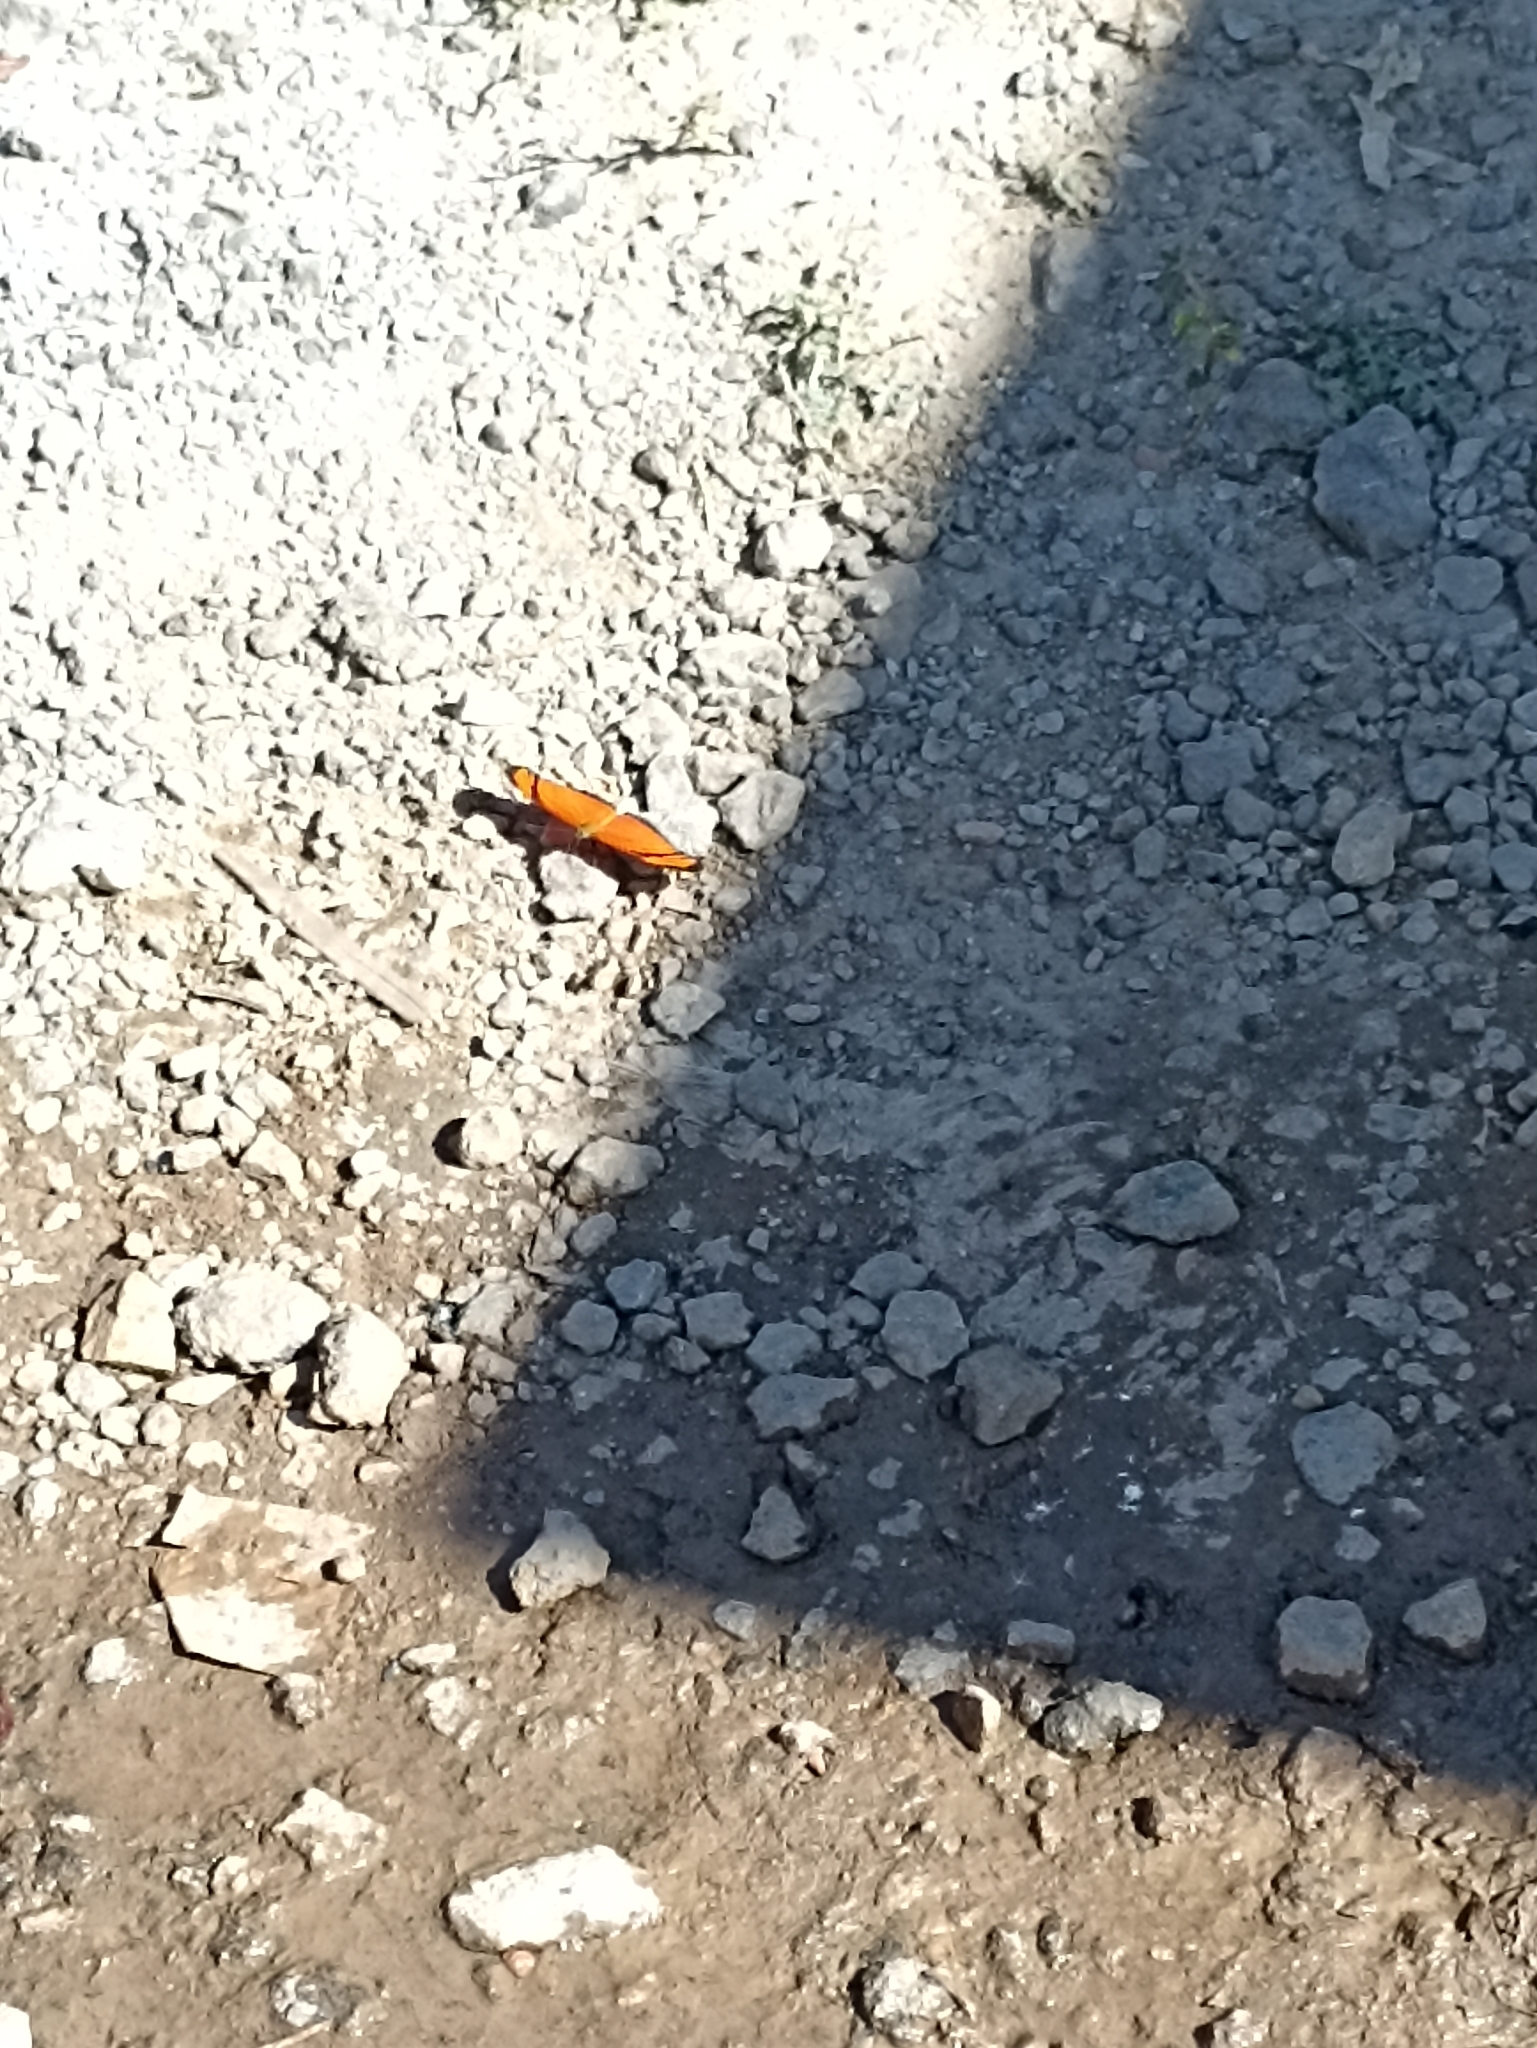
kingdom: Animalia
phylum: Arthropoda
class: Insecta
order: Lepidoptera
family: Nymphalidae
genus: Dryas
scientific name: Dryas iulia
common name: Flambeau
